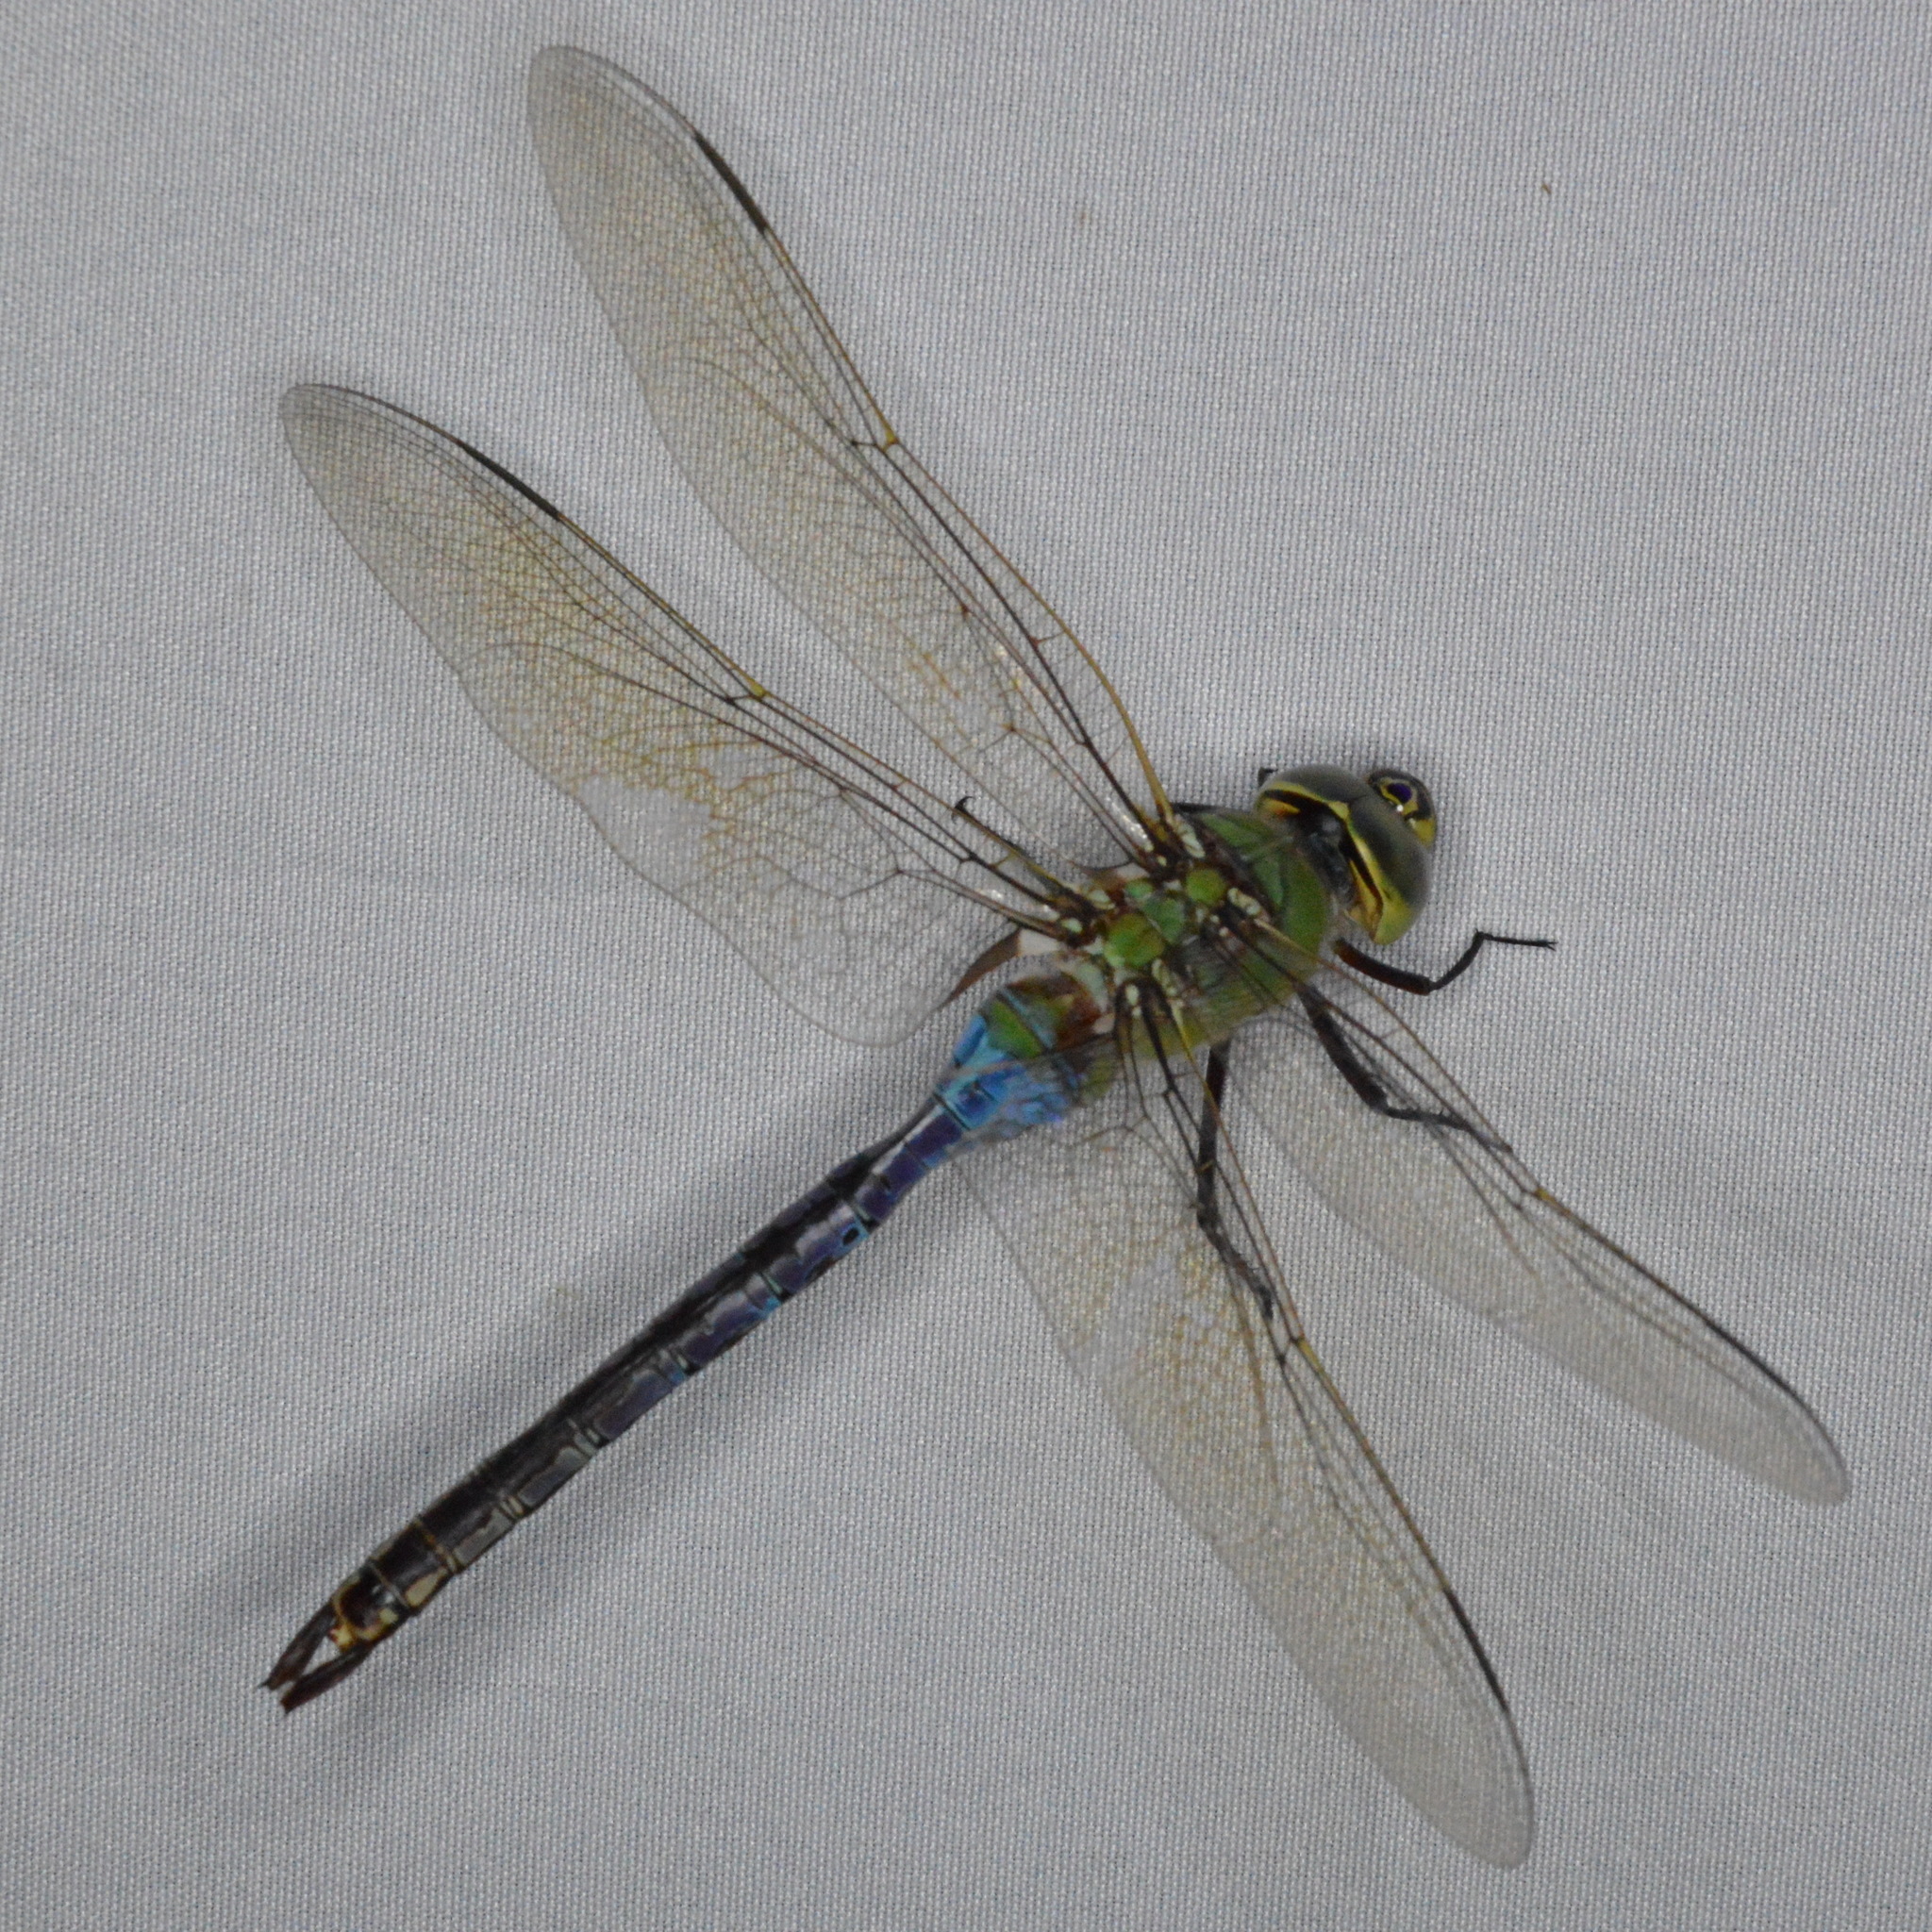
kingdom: Animalia
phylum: Arthropoda
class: Insecta
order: Odonata
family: Aeshnidae
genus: Anax
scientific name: Anax junius
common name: Common green darner
